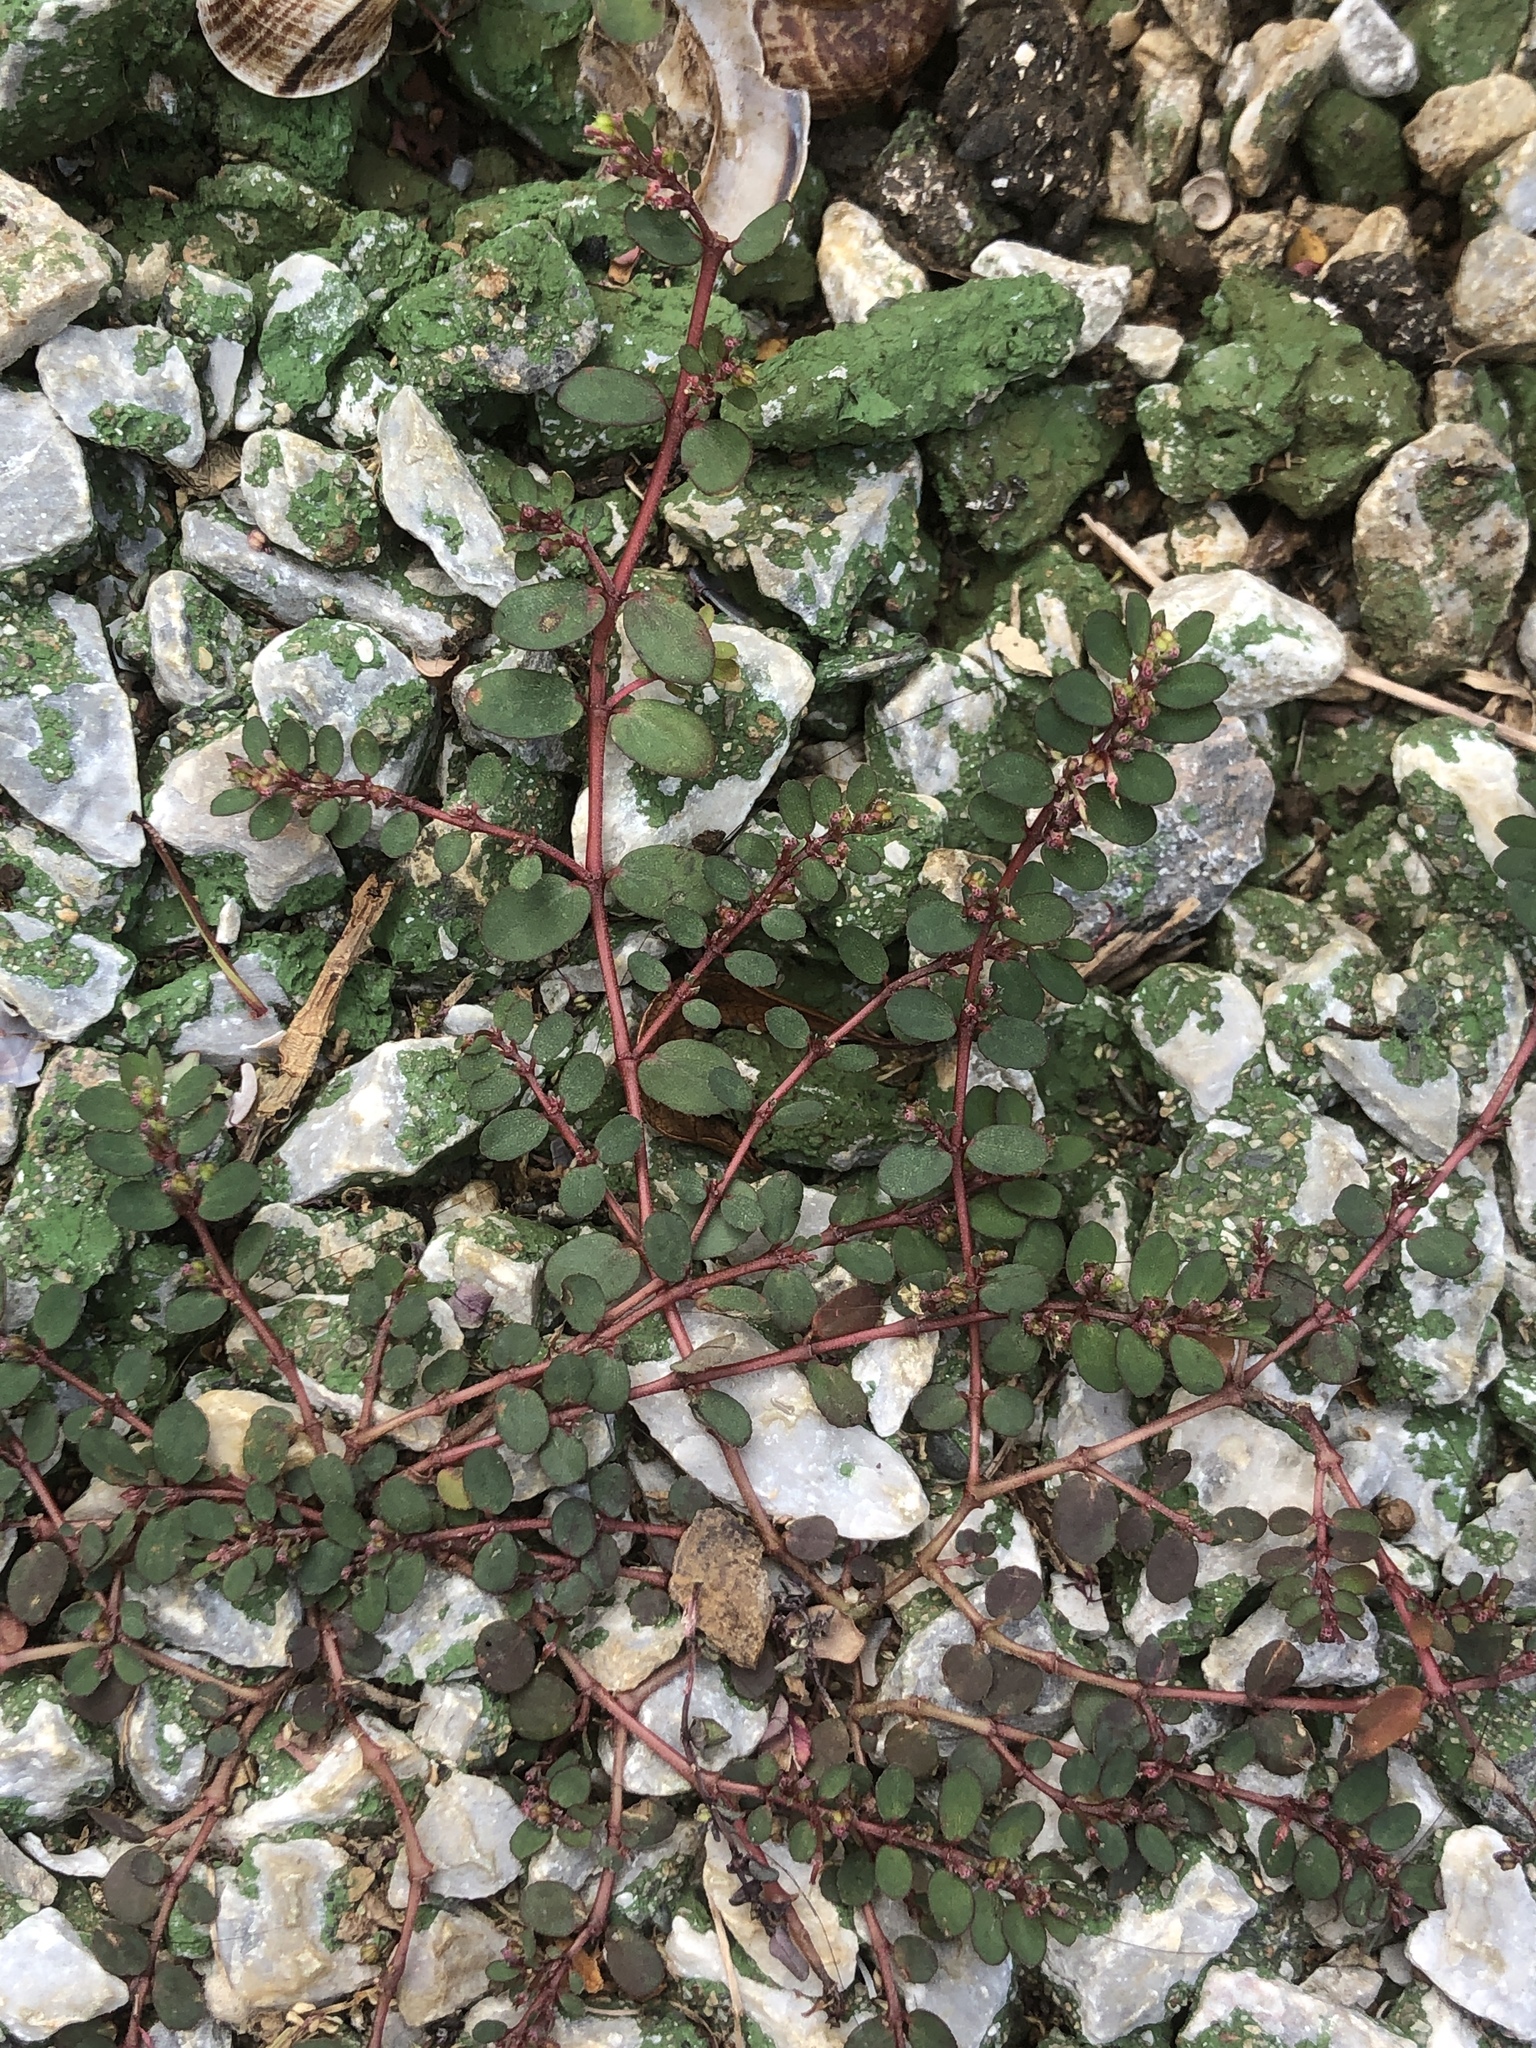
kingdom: Plantae
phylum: Tracheophyta
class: Magnoliopsida
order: Malpighiales
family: Euphorbiaceae
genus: Euphorbia
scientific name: Euphorbia prostrata
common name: Prostrate sandmat
